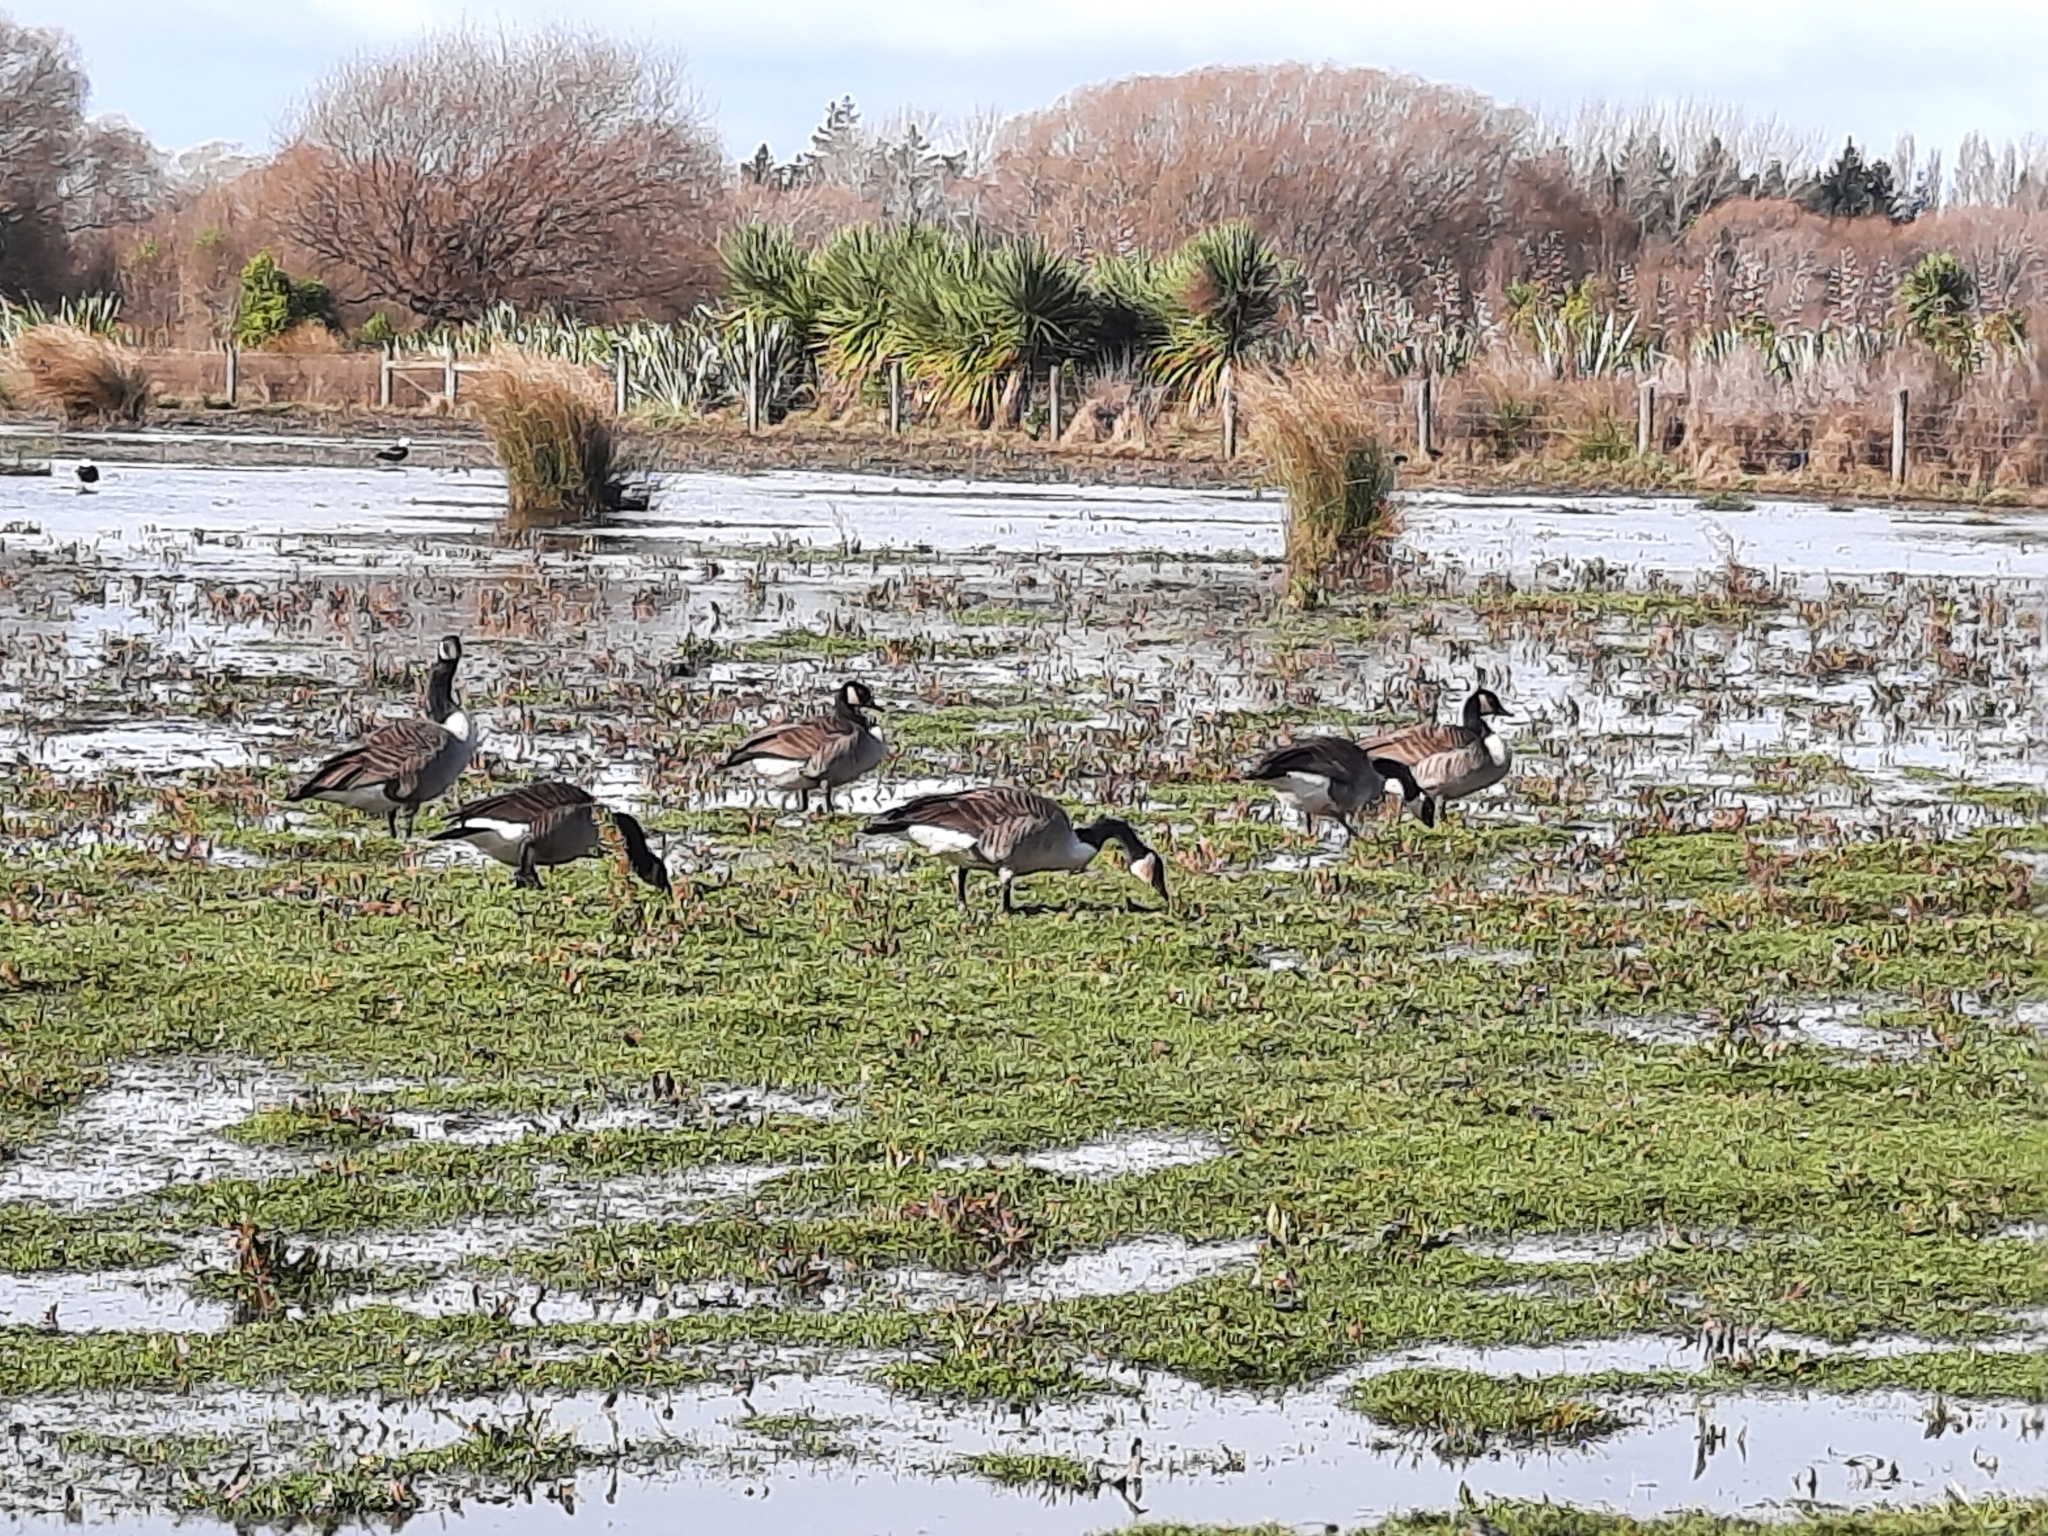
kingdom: Animalia
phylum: Chordata
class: Aves
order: Anseriformes
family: Anatidae
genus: Branta
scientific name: Branta canadensis
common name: Canada goose
